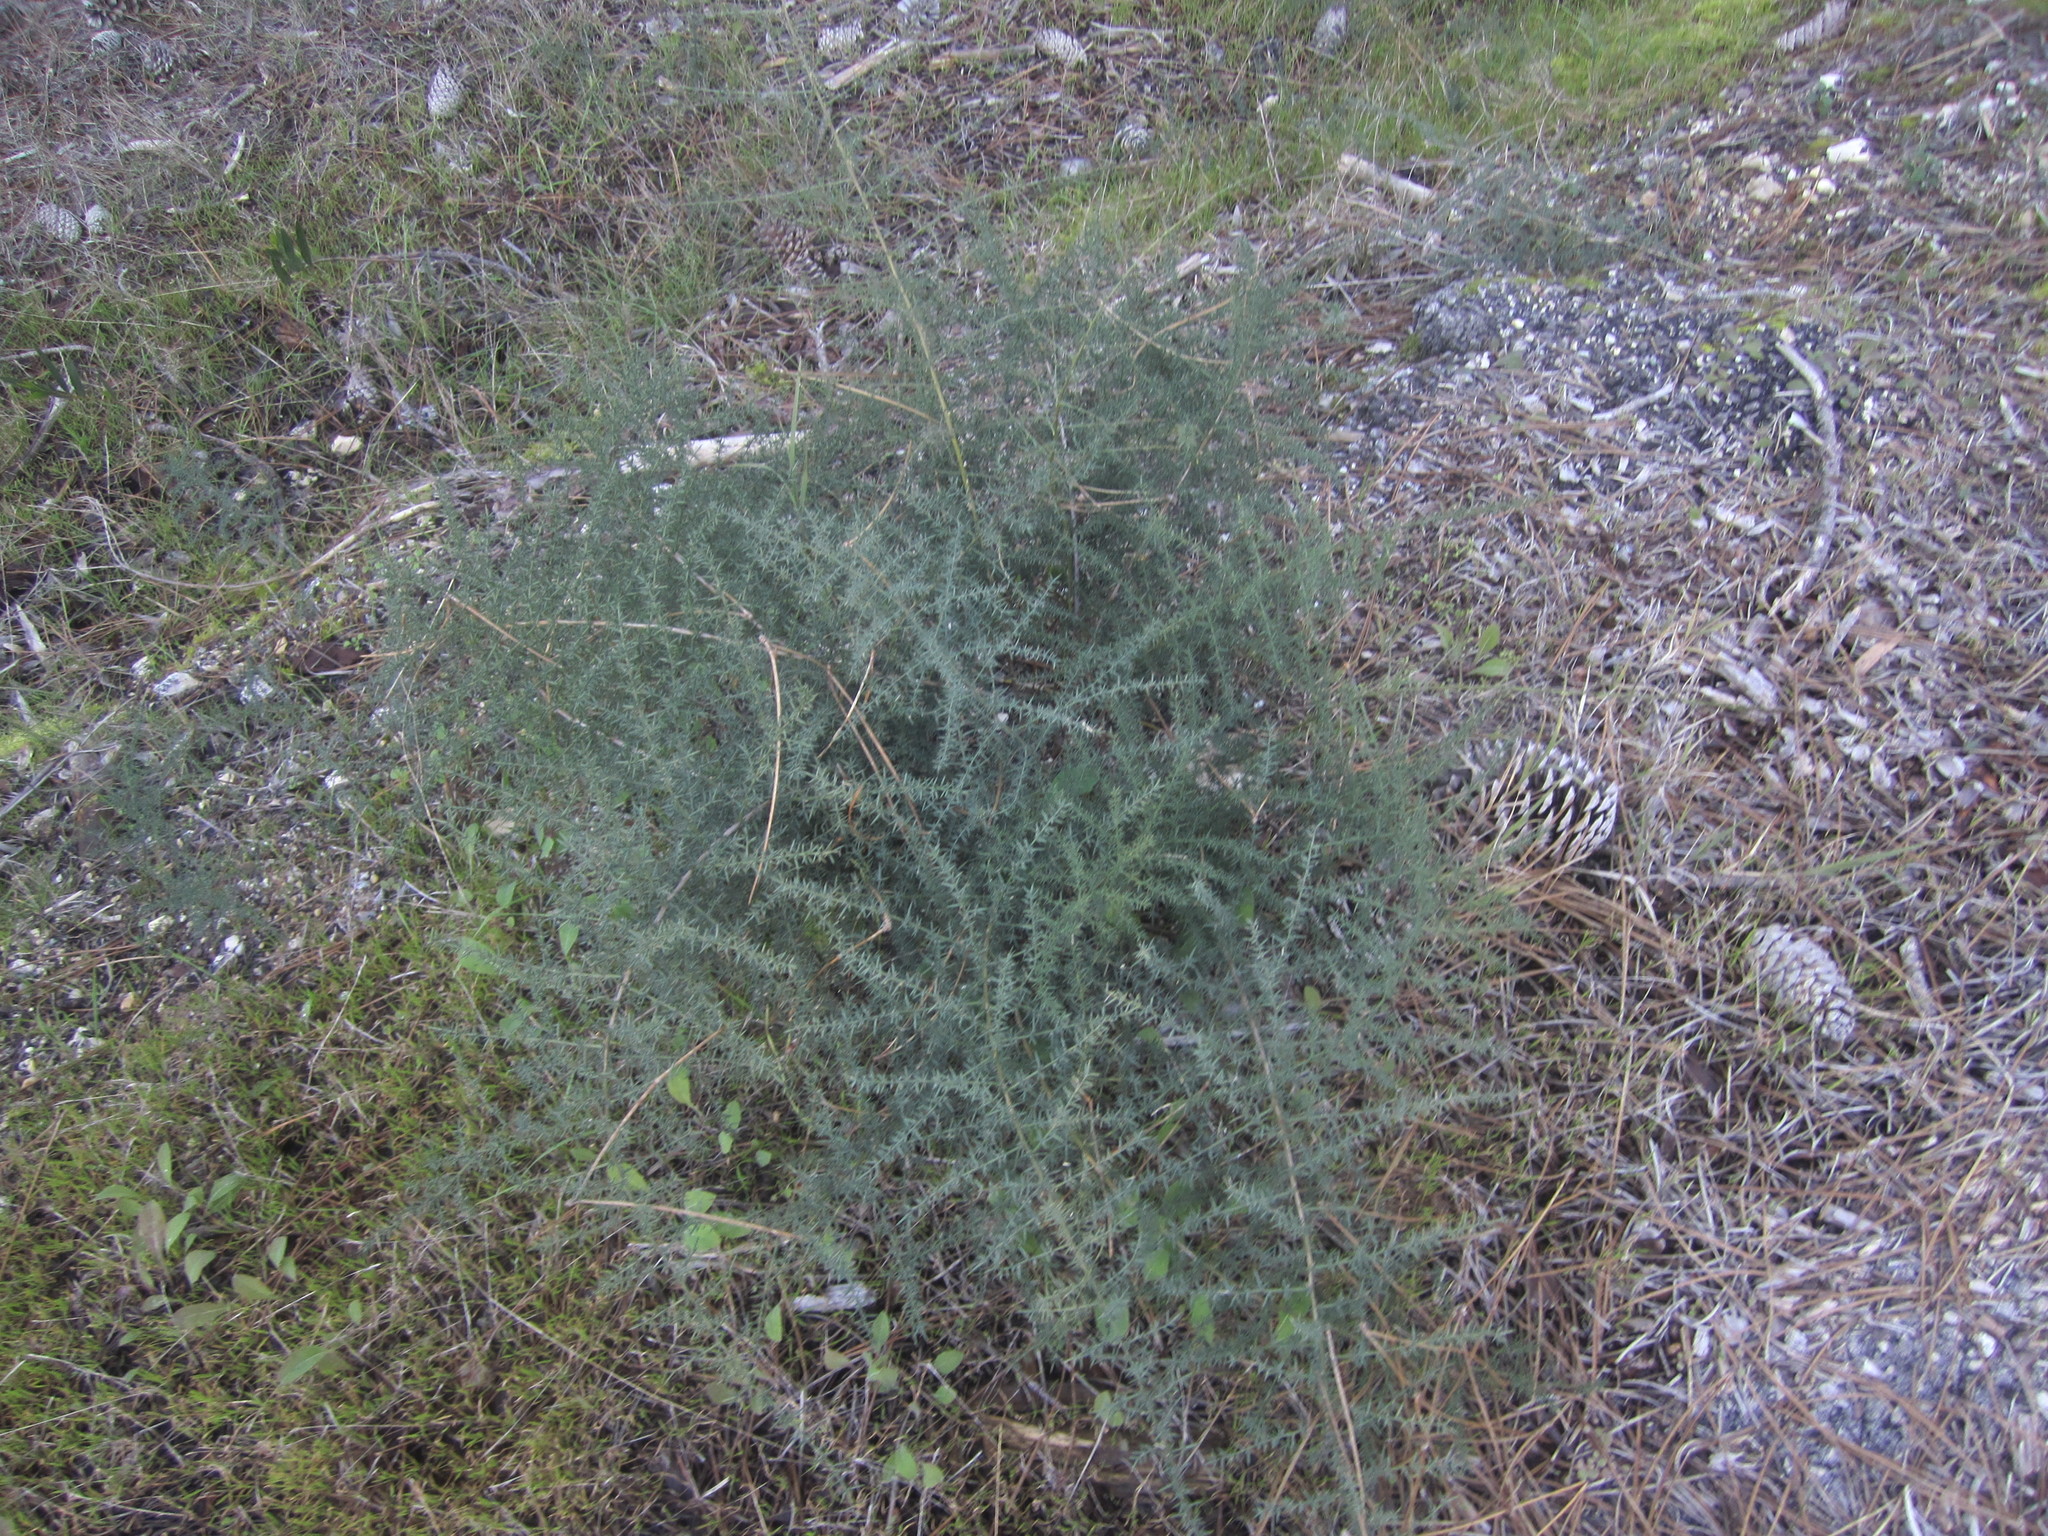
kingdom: Plantae
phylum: Tracheophyta
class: Liliopsida
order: Asparagales
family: Asparagaceae
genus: Asparagus
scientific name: Asparagus aphyllus
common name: Mediterranean asparagus
